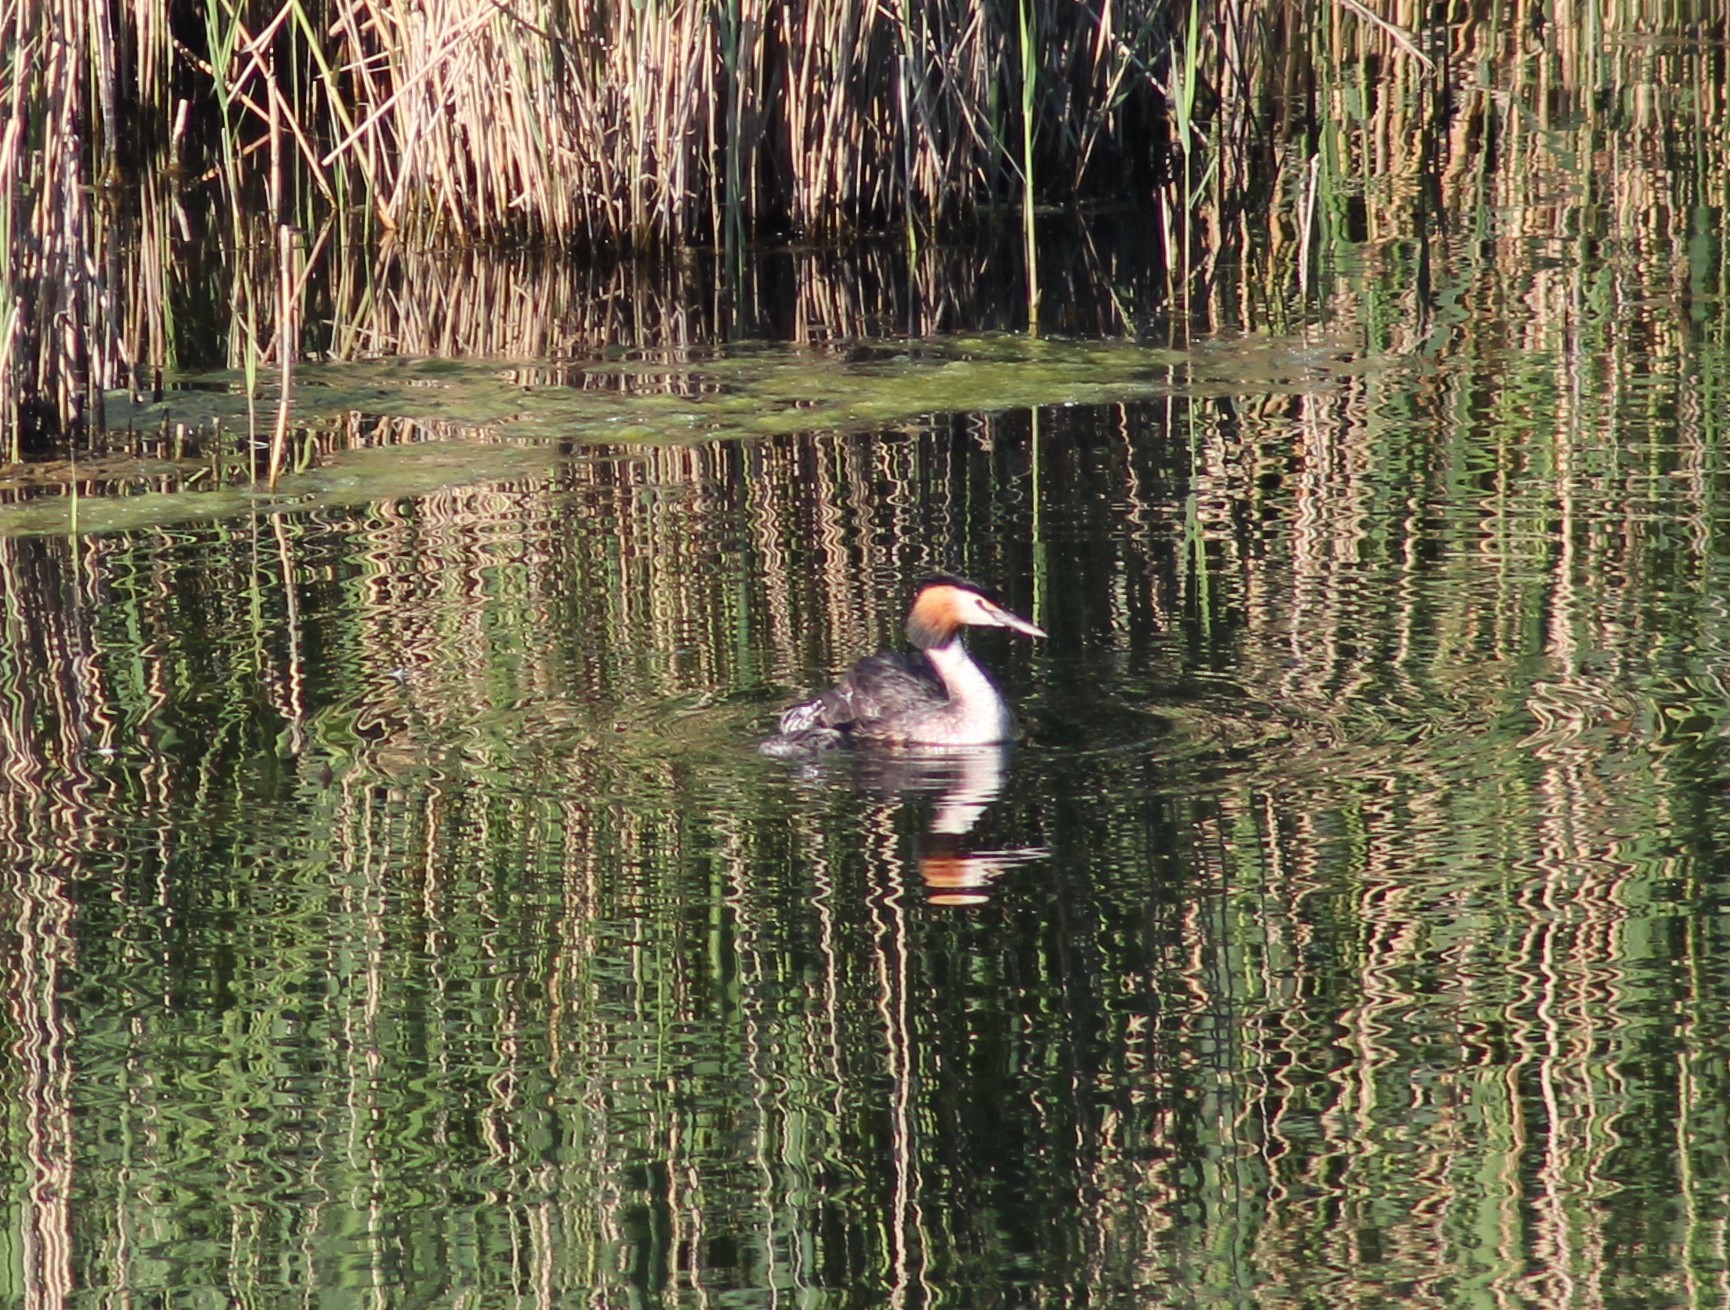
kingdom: Animalia
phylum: Chordata
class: Aves
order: Podicipediformes
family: Podicipedidae
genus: Podiceps
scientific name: Podiceps cristatus
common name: Great crested grebe
